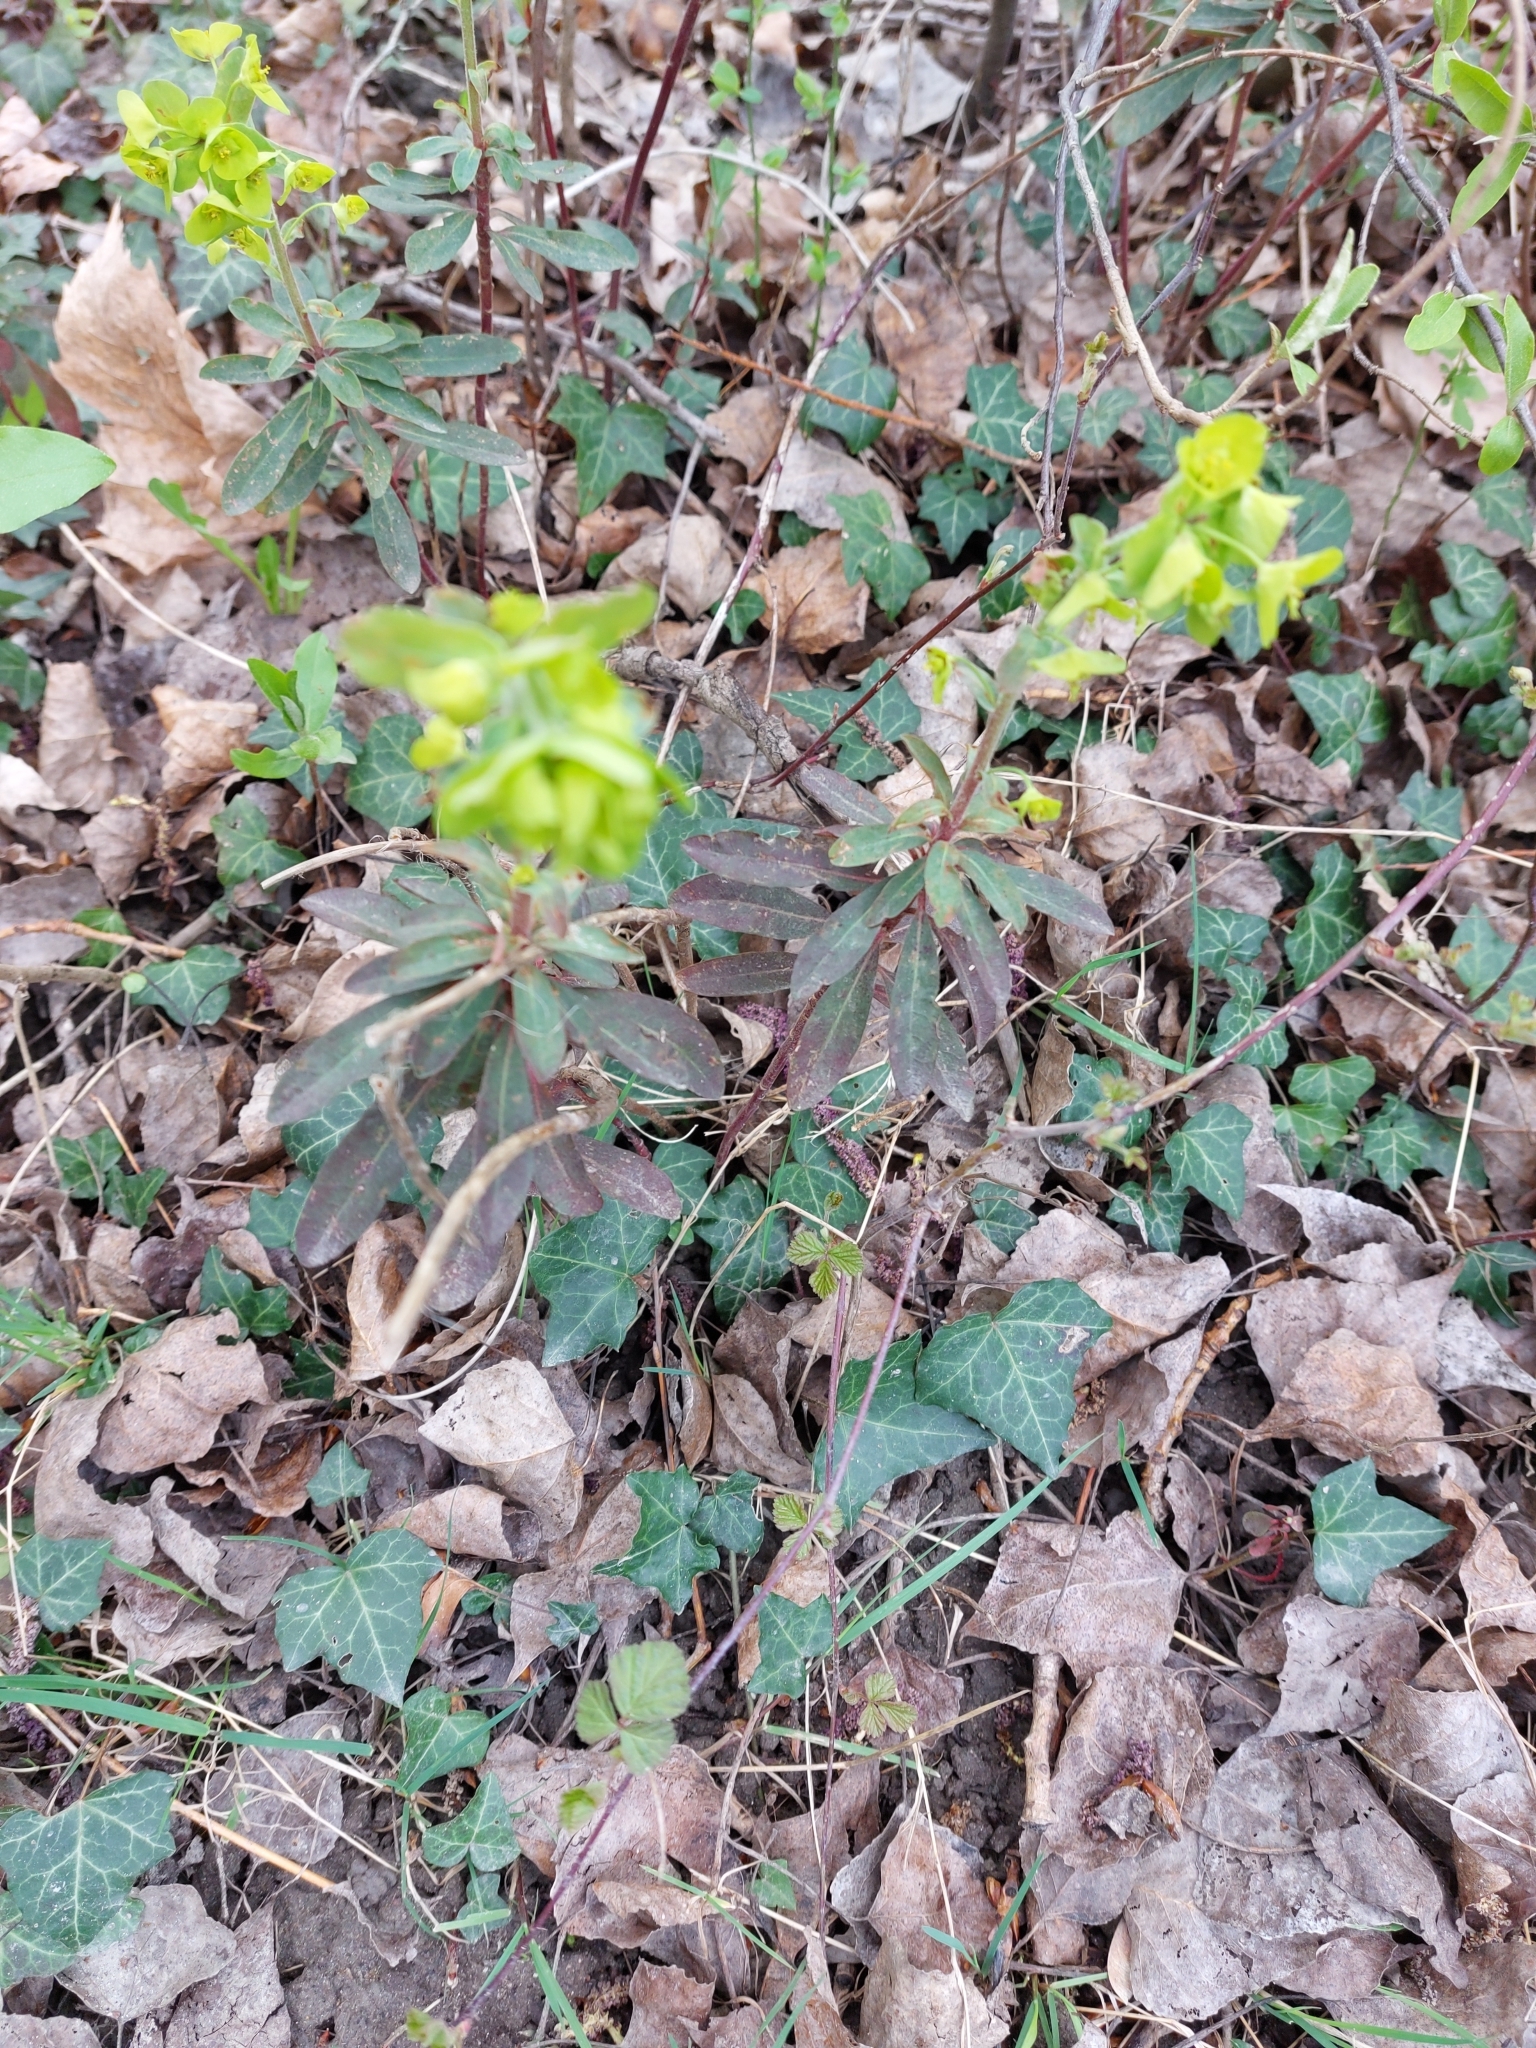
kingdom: Plantae
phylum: Tracheophyta
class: Magnoliopsida
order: Malpighiales
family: Euphorbiaceae
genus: Euphorbia
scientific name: Euphorbia amygdaloides
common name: Wood spurge
